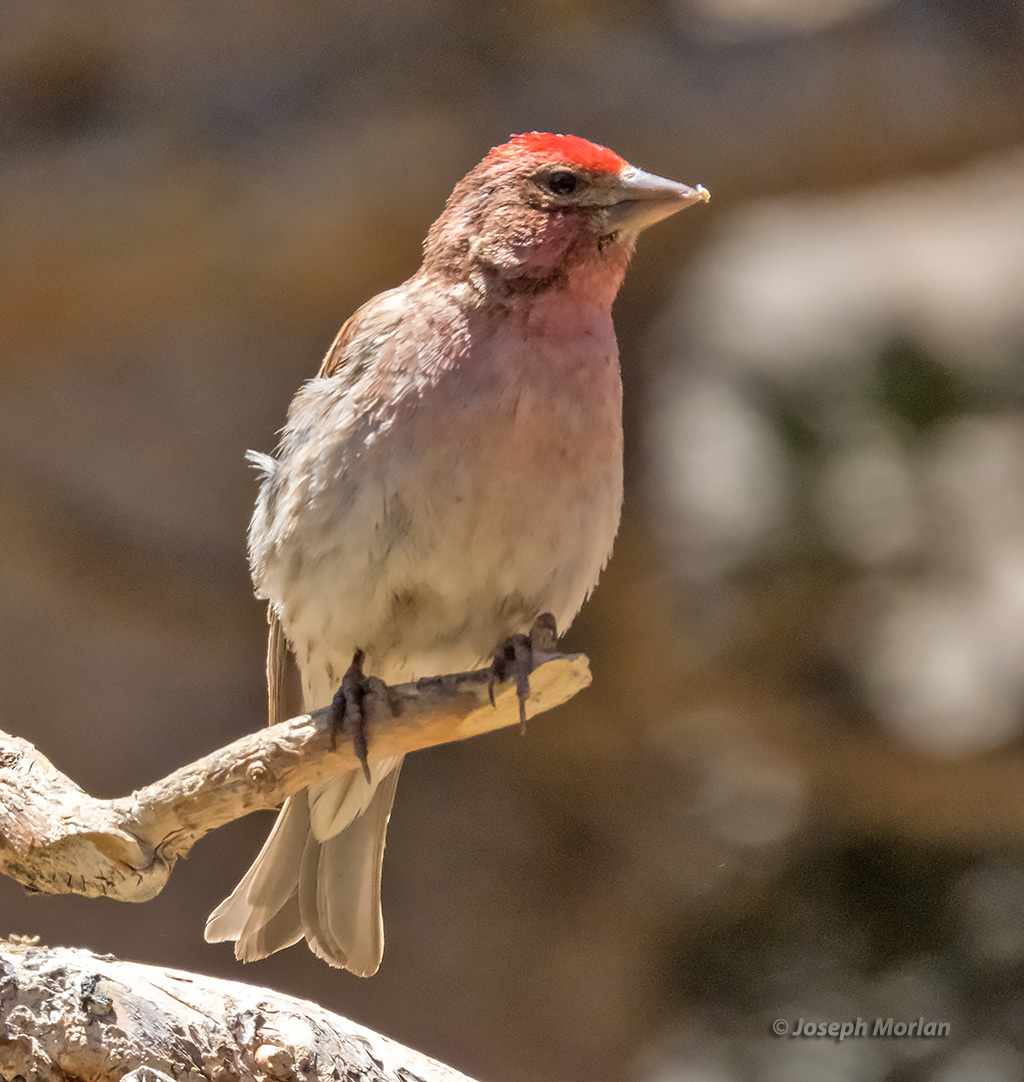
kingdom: Animalia
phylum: Chordata
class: Aves
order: Passeriformes
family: Fringillidae
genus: Haemorhous
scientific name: Haemorhous cassinii
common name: Cassin's finch
